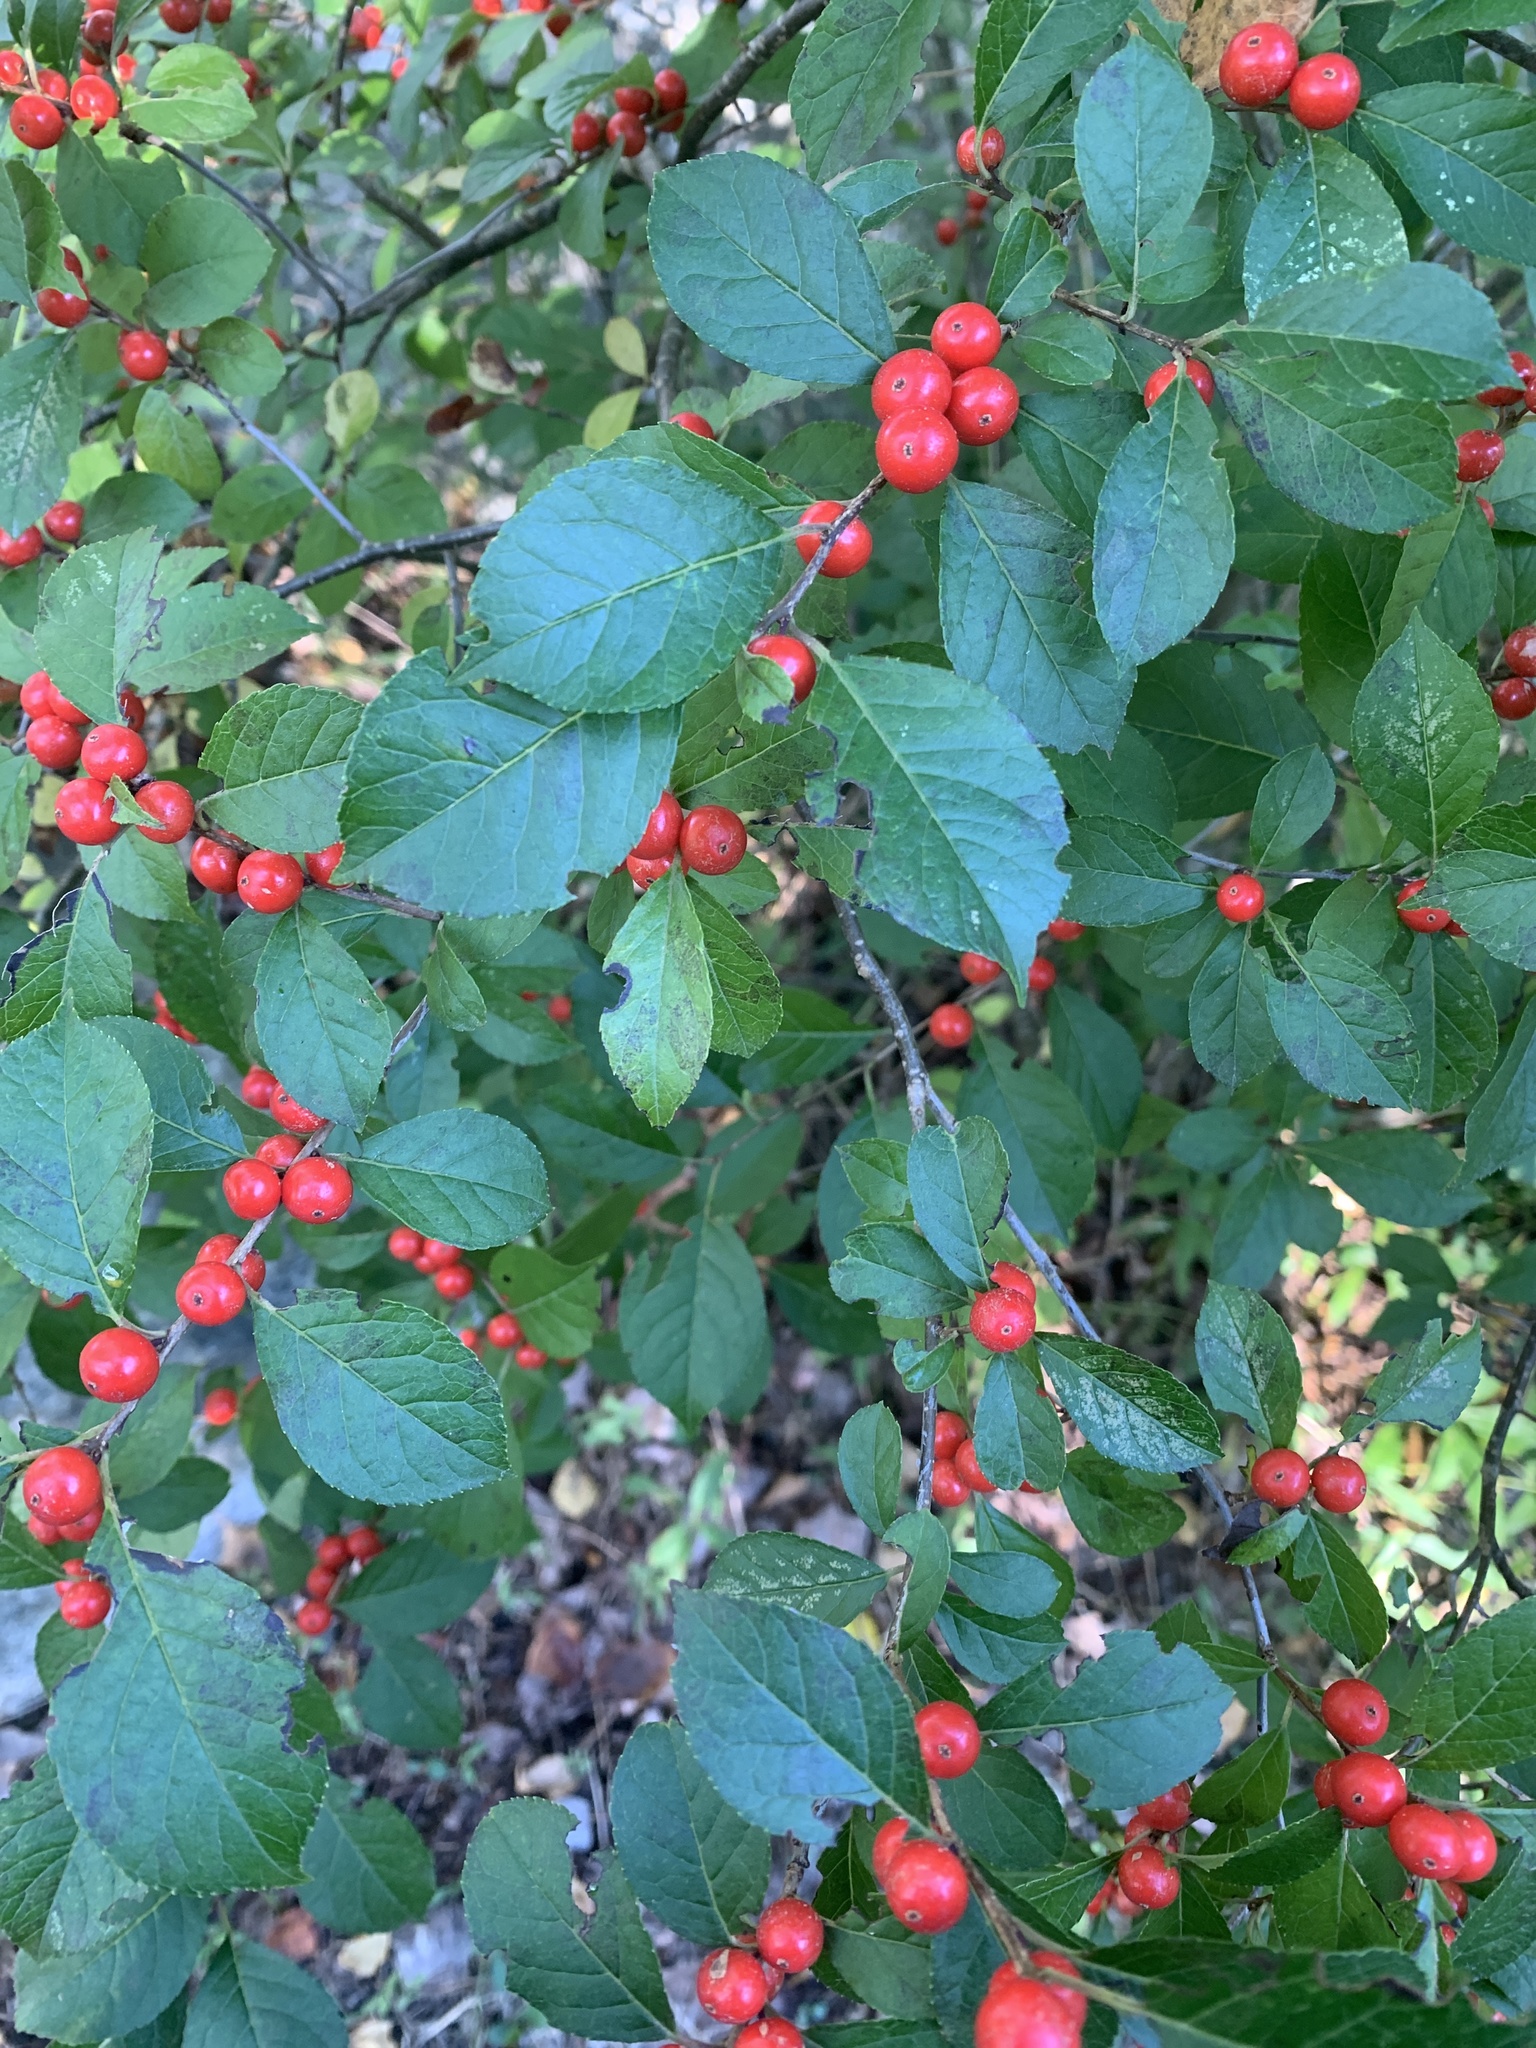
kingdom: Plantae
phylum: Tracheophyta
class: Magnoliopsida
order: Aquifoliales
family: Aquifoliaceae
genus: Ilex
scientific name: Ilex verticillata
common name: Virginia winterberry
